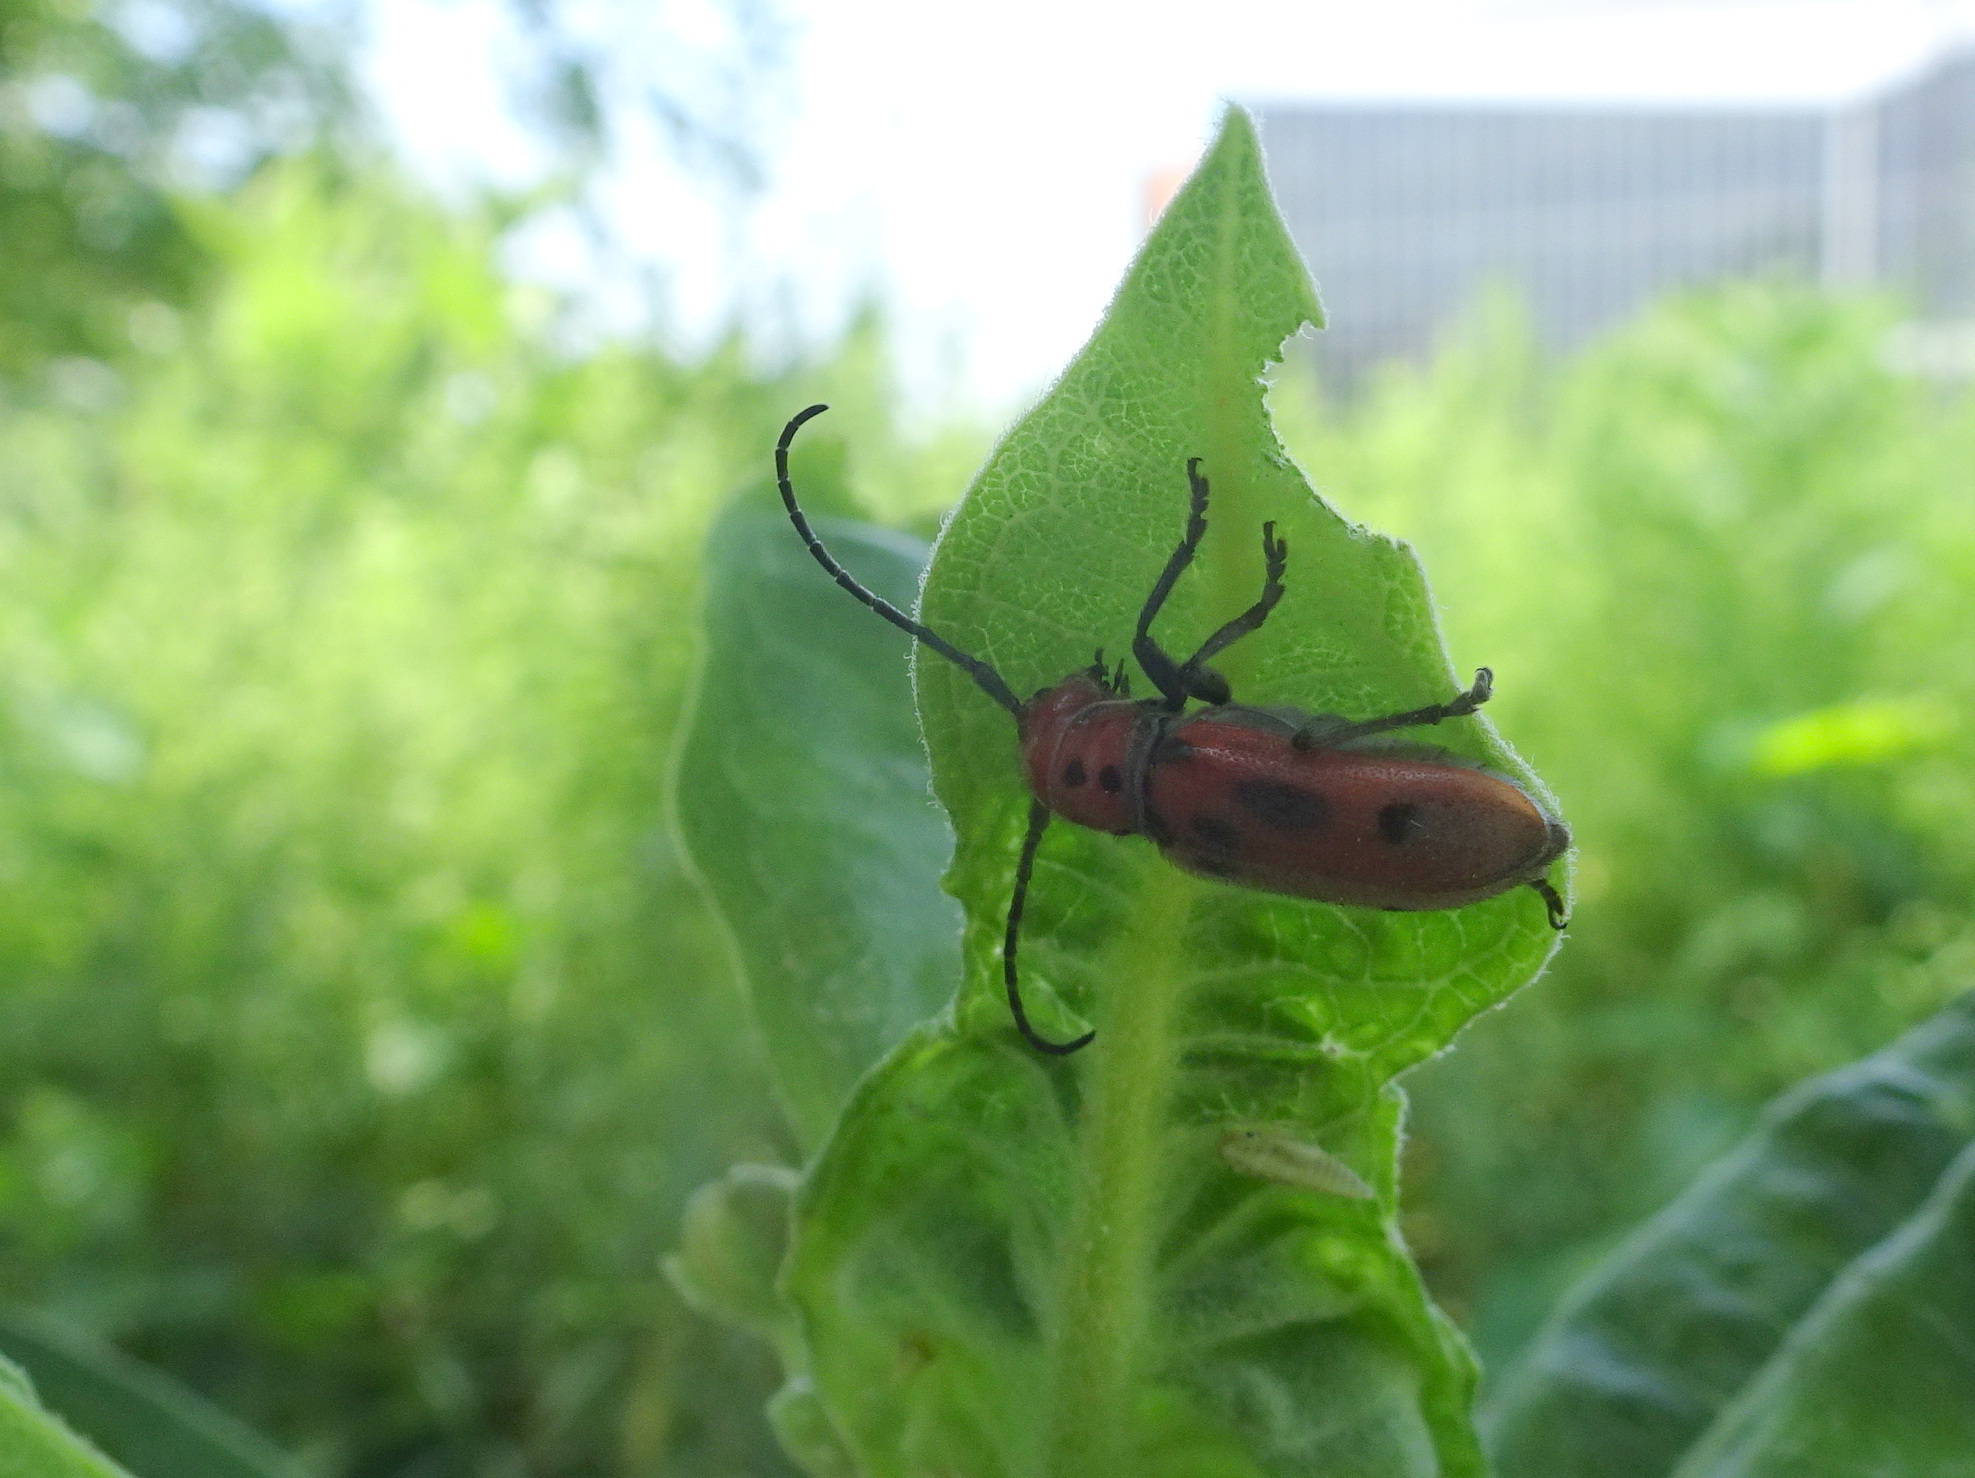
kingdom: Animalia
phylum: Arthropoda
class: Insecta
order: Coleoptera
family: Cerambycidae
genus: Tetraopes
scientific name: Tetraopes tetrophthalmus
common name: Red milkweed beetle
